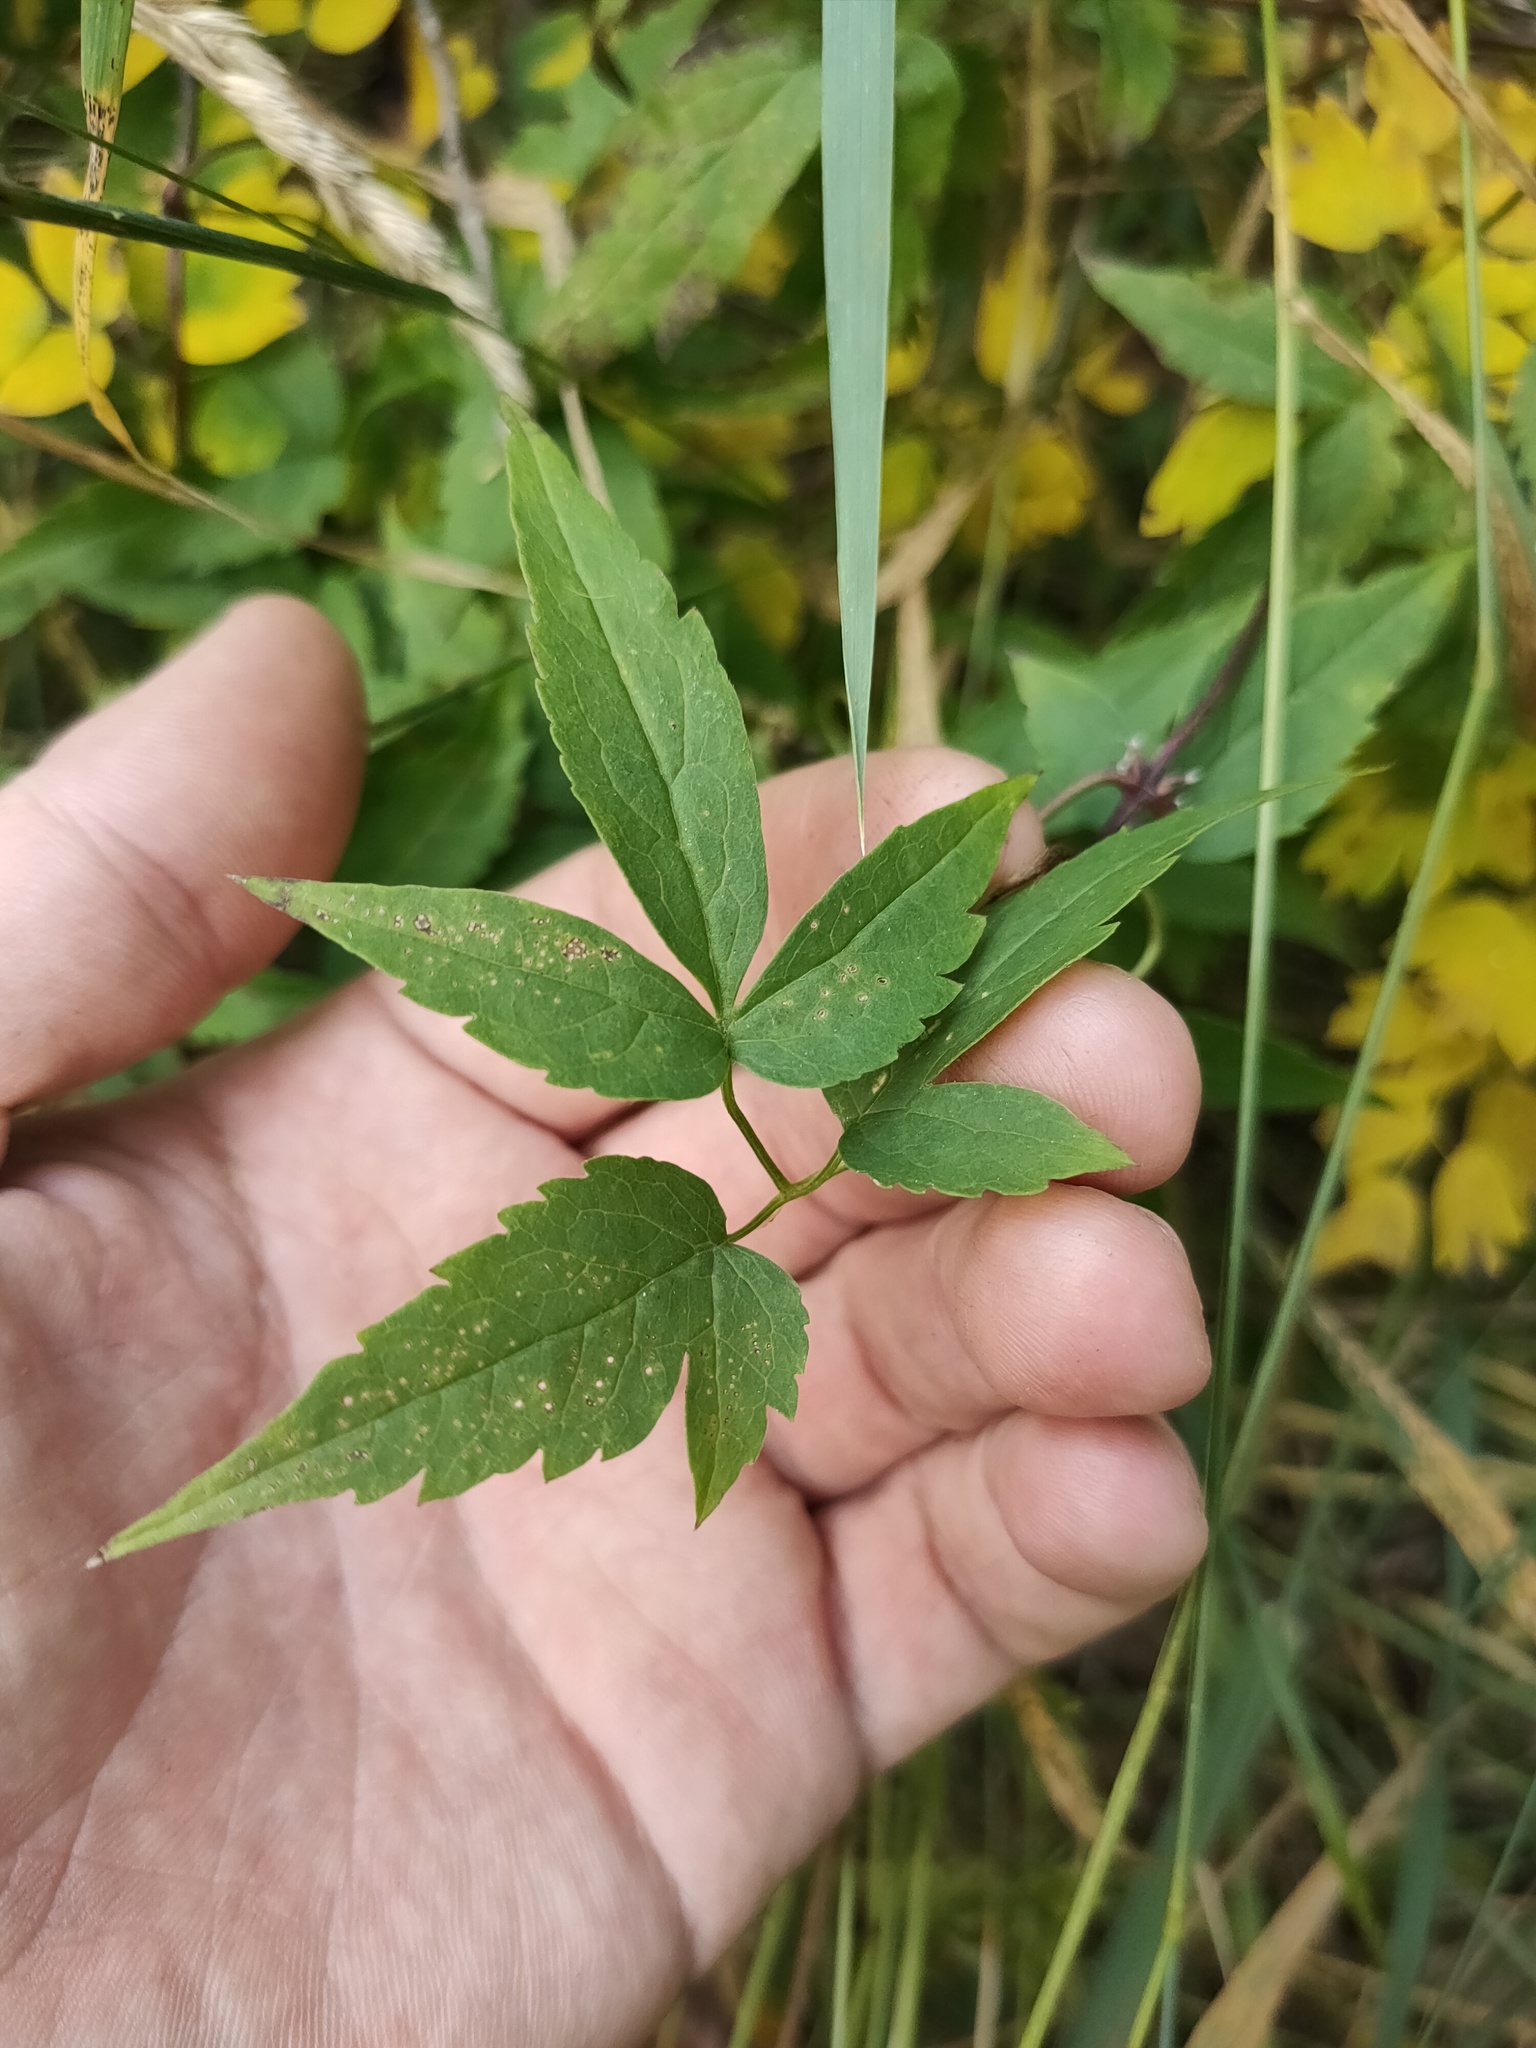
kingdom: Plantae
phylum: Tracheophyta
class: Magnoliopsida
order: Ranunculales
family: Ranunculaceae
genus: Clematis
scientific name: Clematis sibirica
